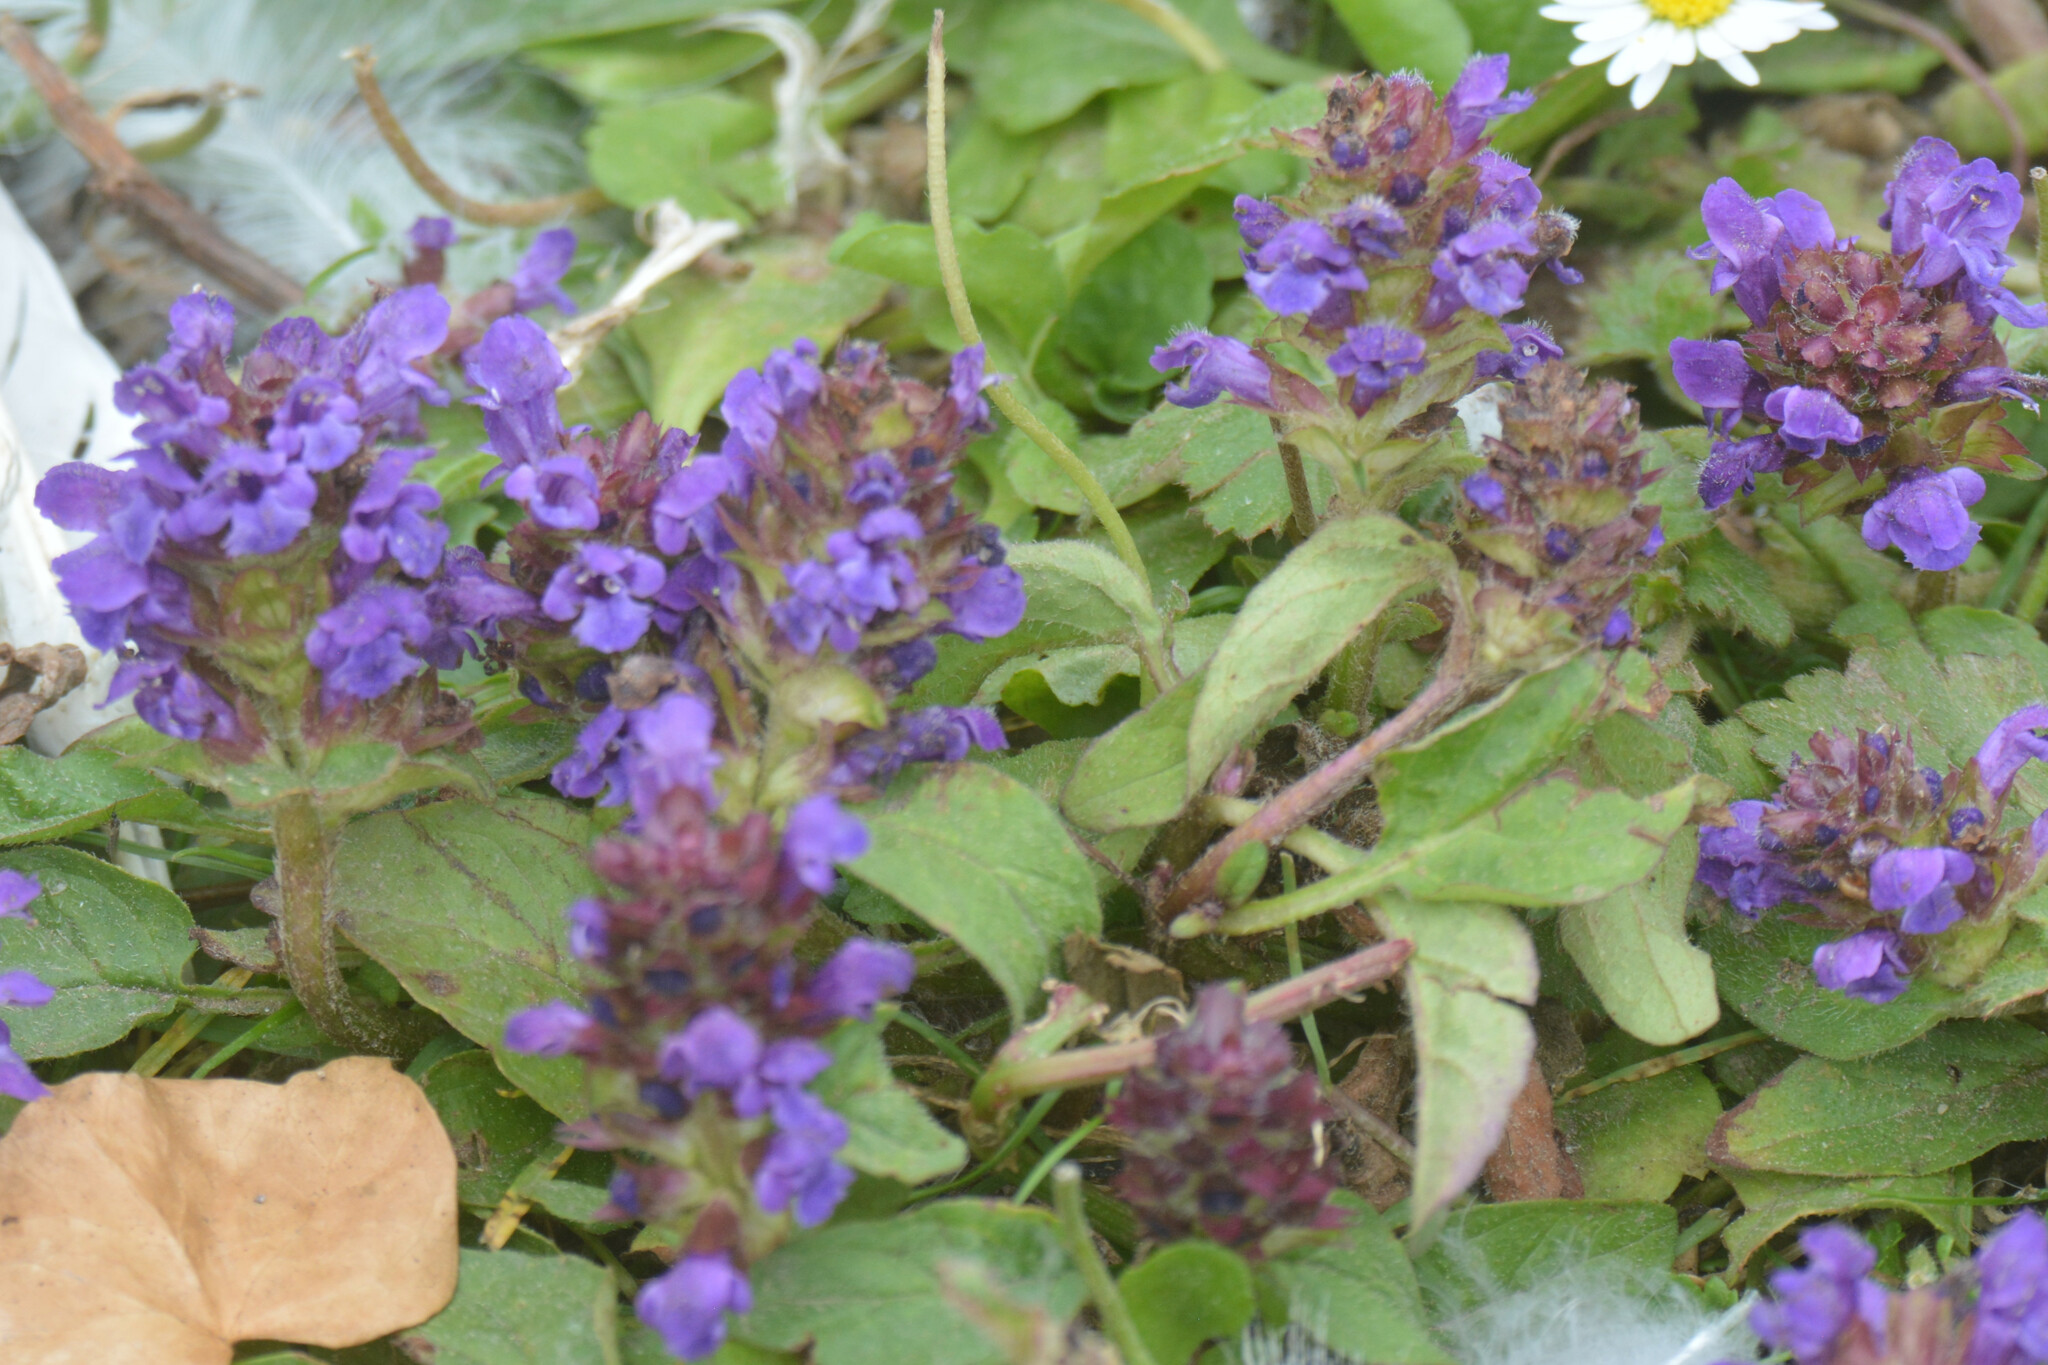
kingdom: Plantae
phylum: Tracheophyta
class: Magnoliopsida
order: Lamiales
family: Lamiaceae
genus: Prunella
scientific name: Prunella vulgaris
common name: Heal-all
